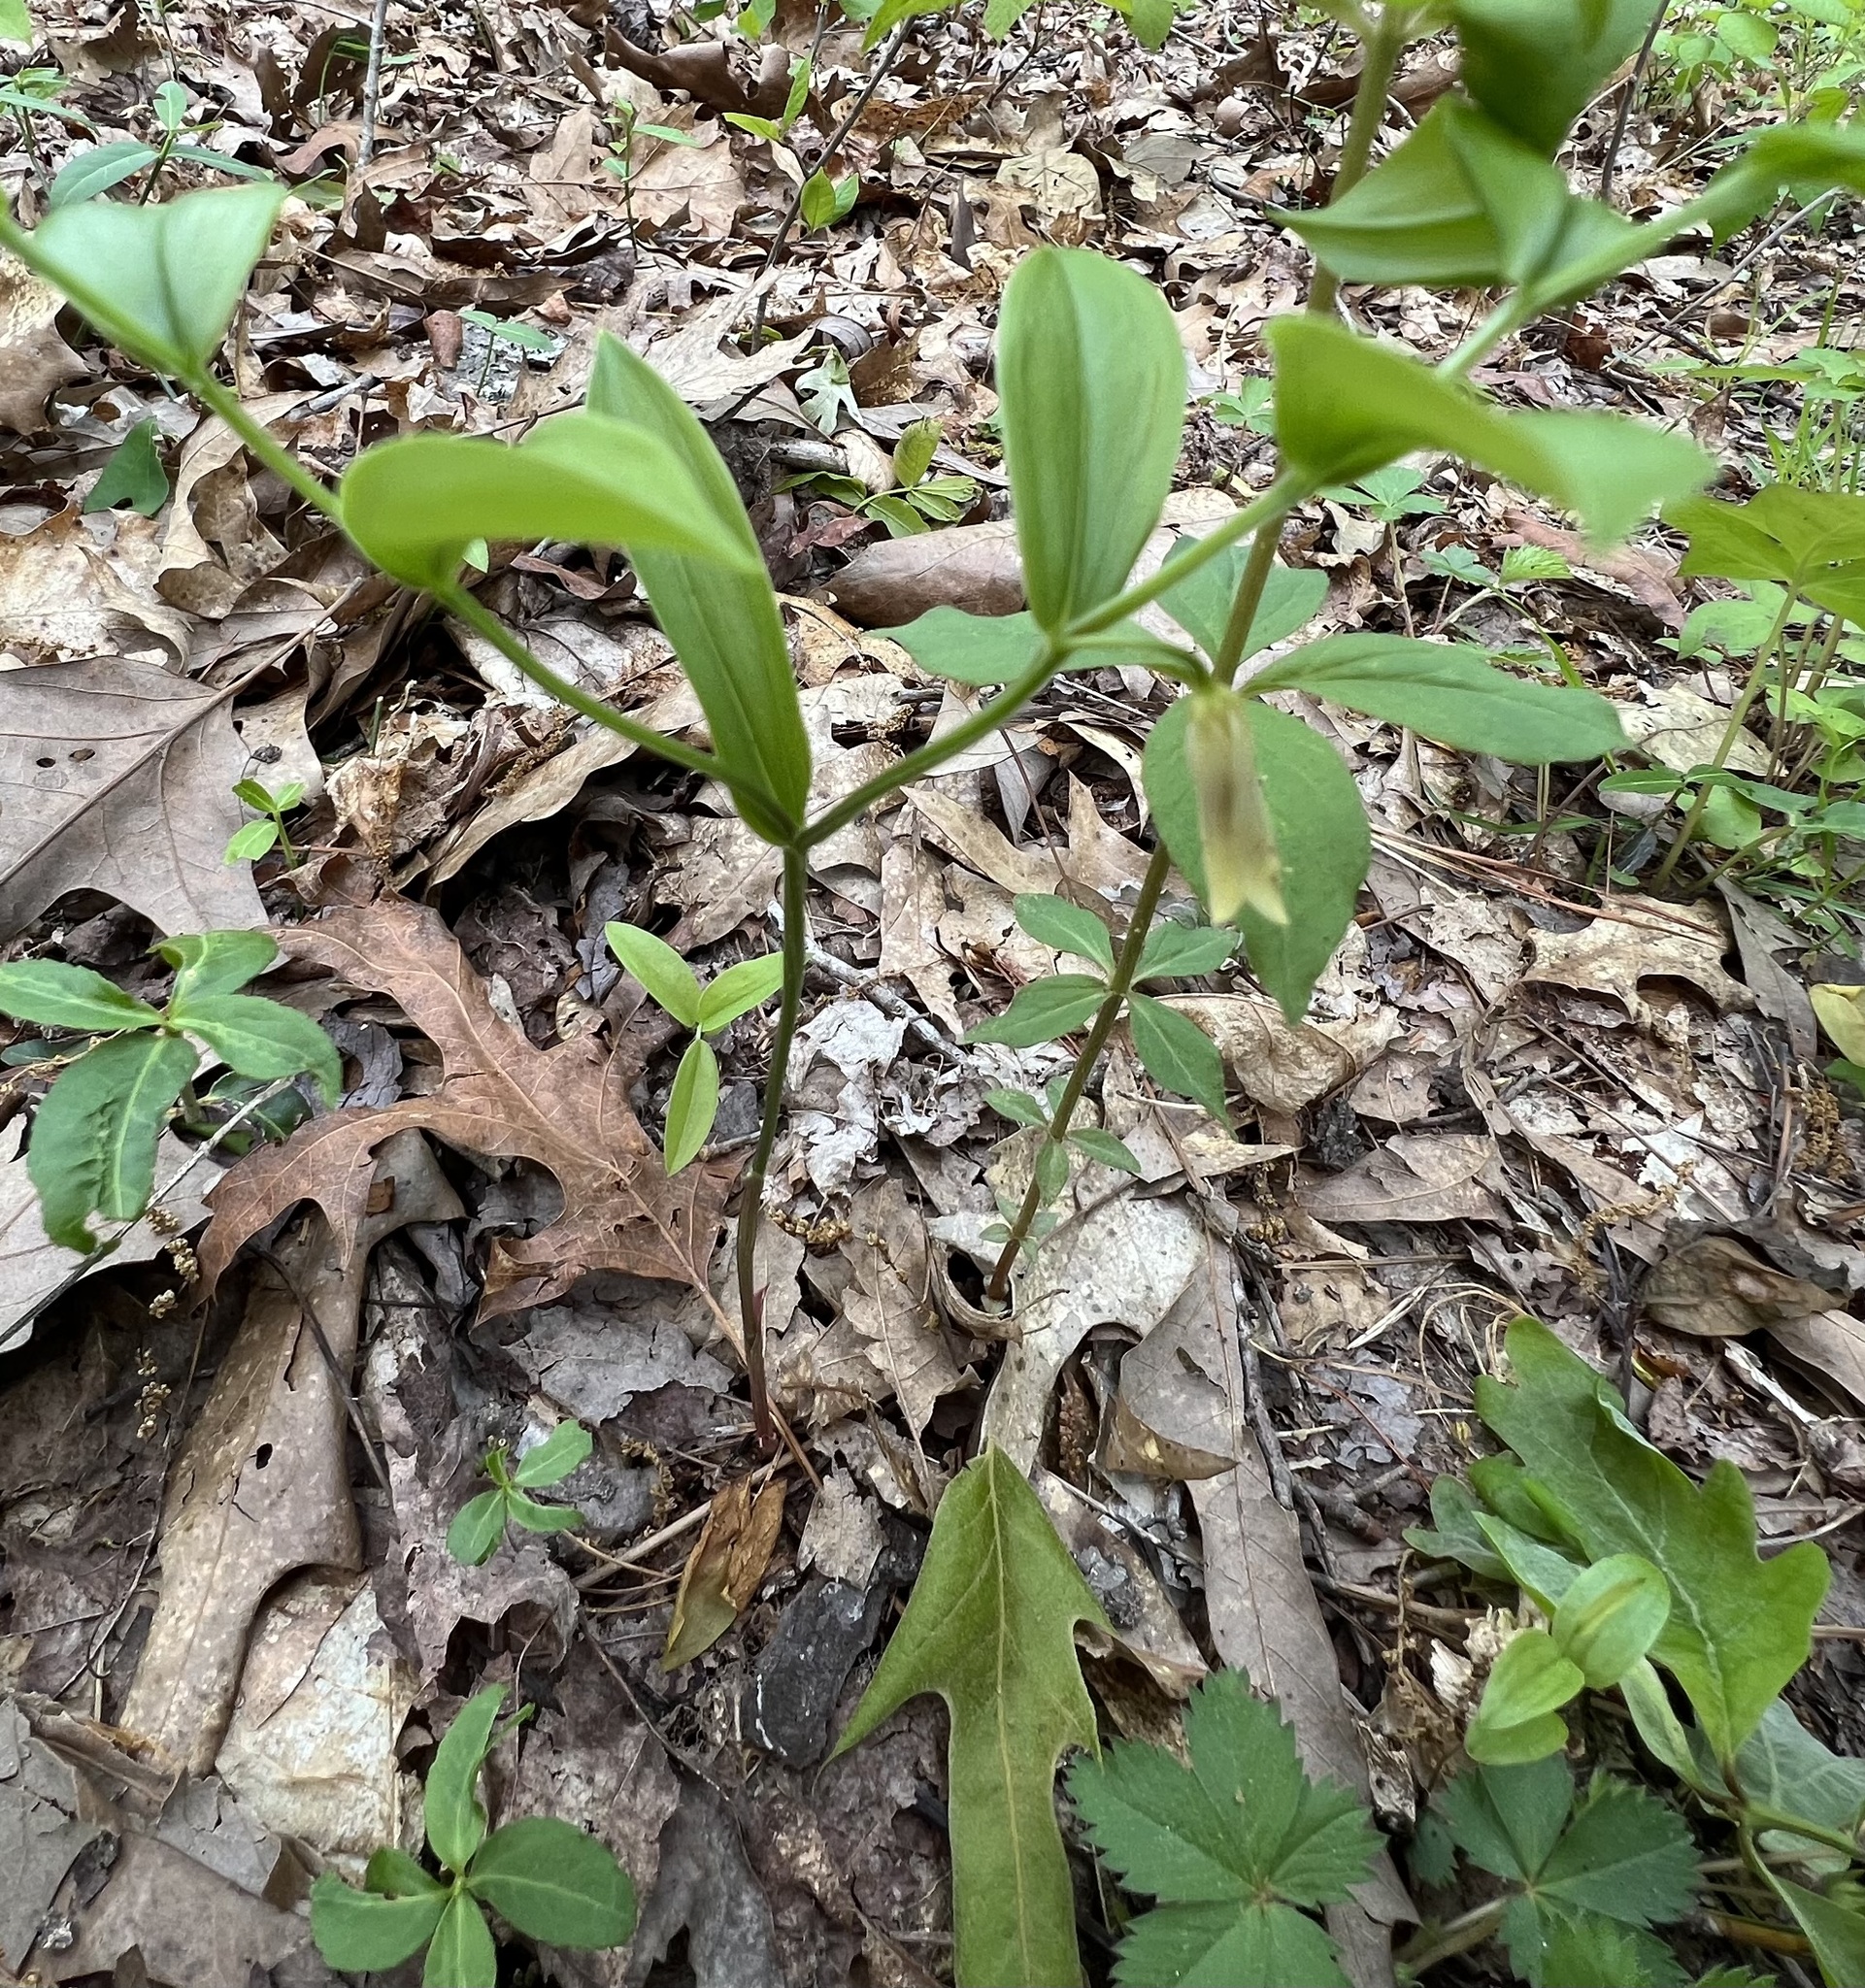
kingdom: Plantae
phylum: Tracheophyta
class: Liliopsida
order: Liliales
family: Colchicaceae
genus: Uvularia
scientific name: Uvularia puberula
